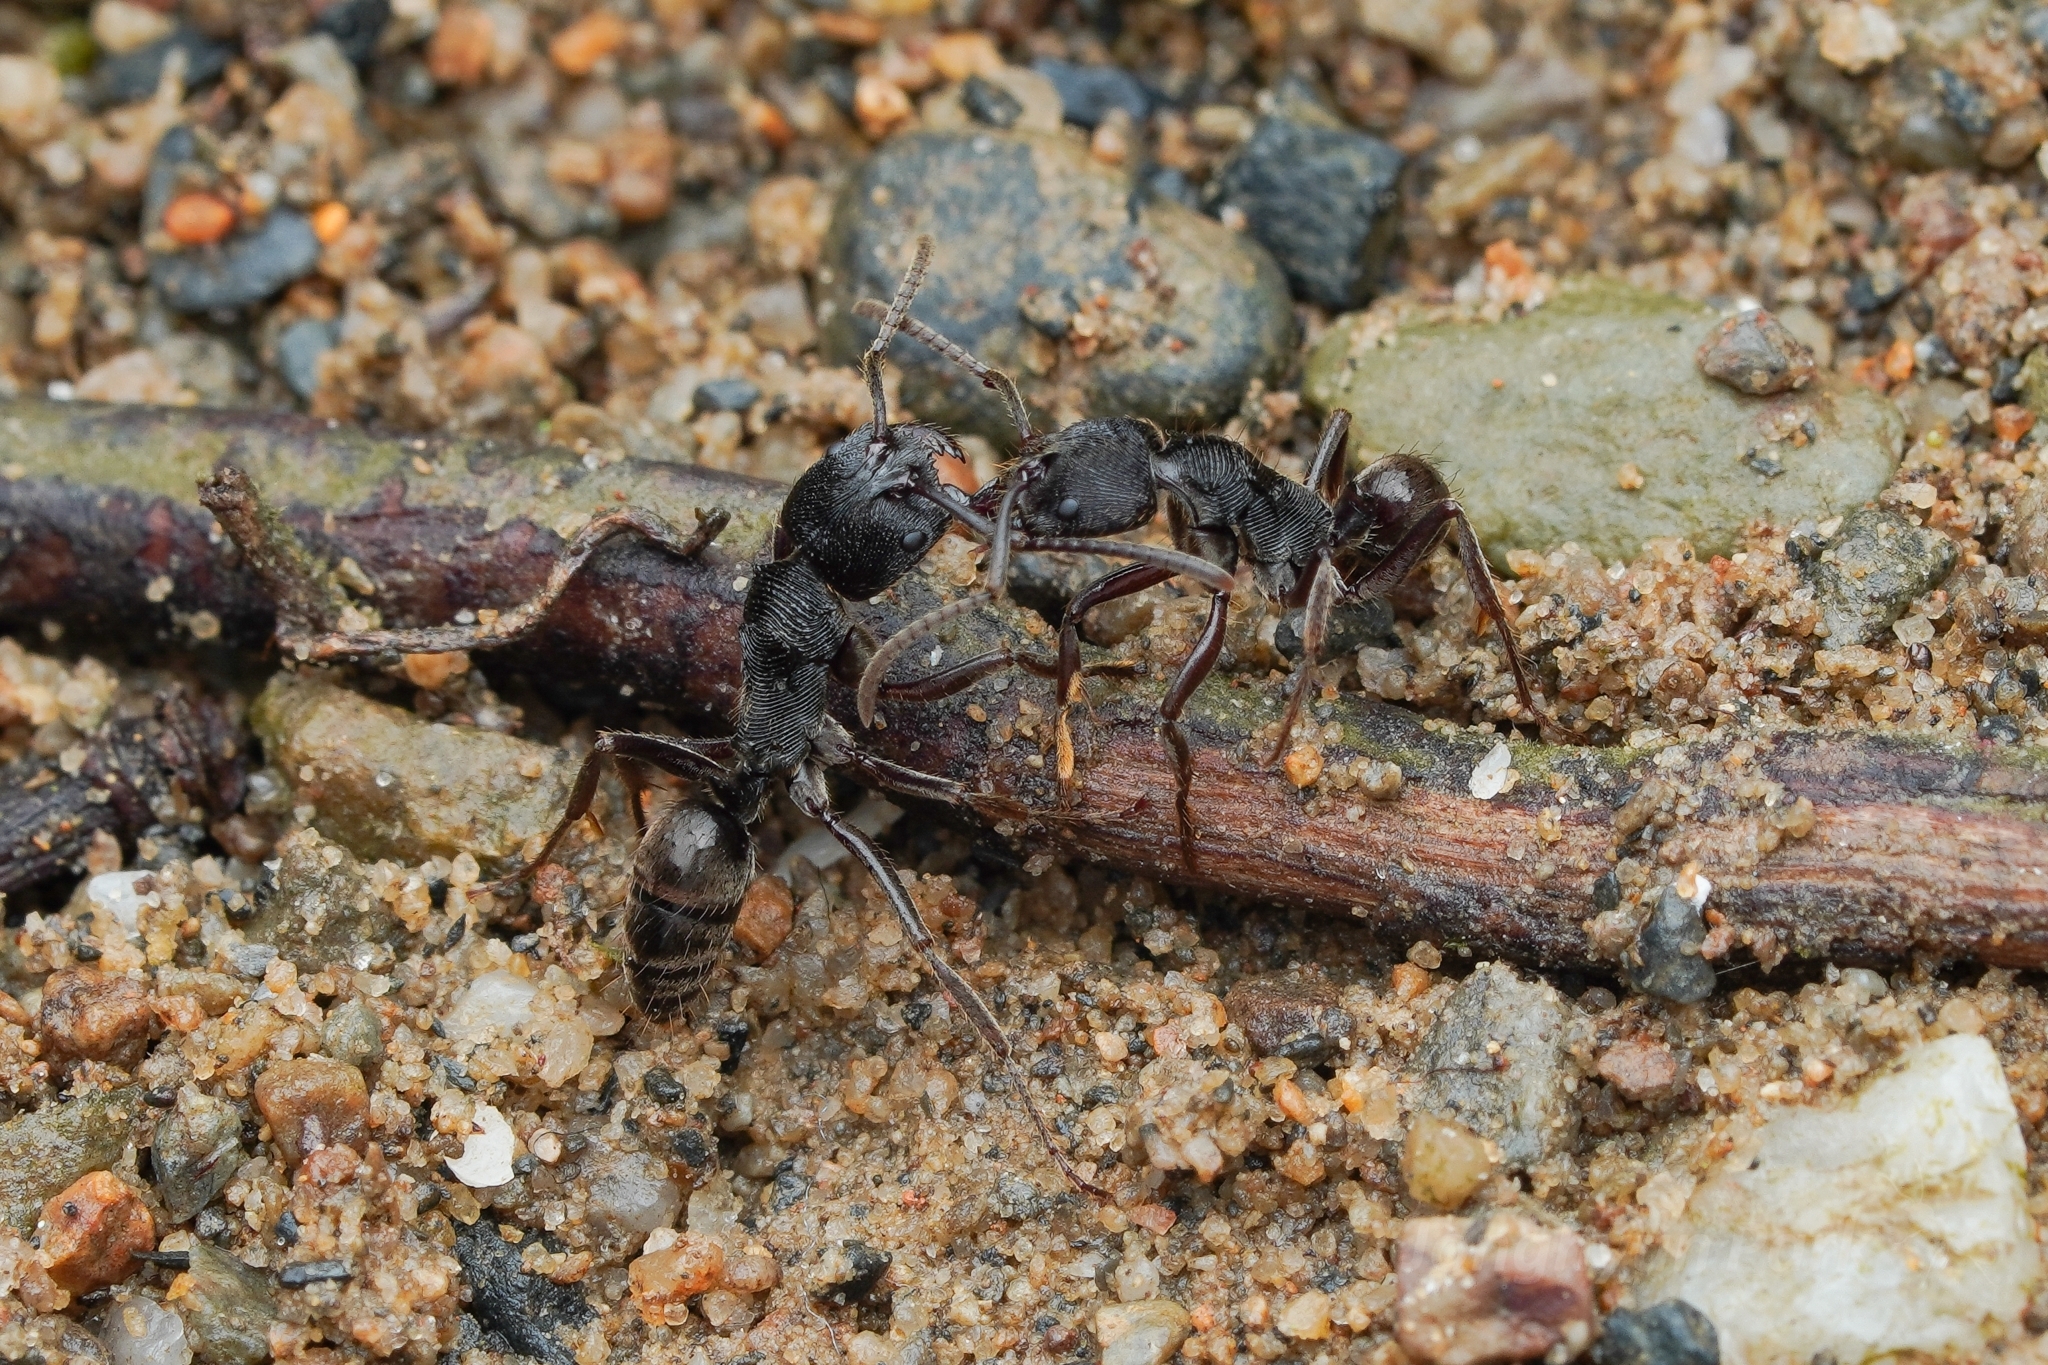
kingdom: Animalia
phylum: Arthropoda
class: Insecta
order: Hymenoptera
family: Formicidae
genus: Odontoponera
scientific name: Odontoponera denticulata
